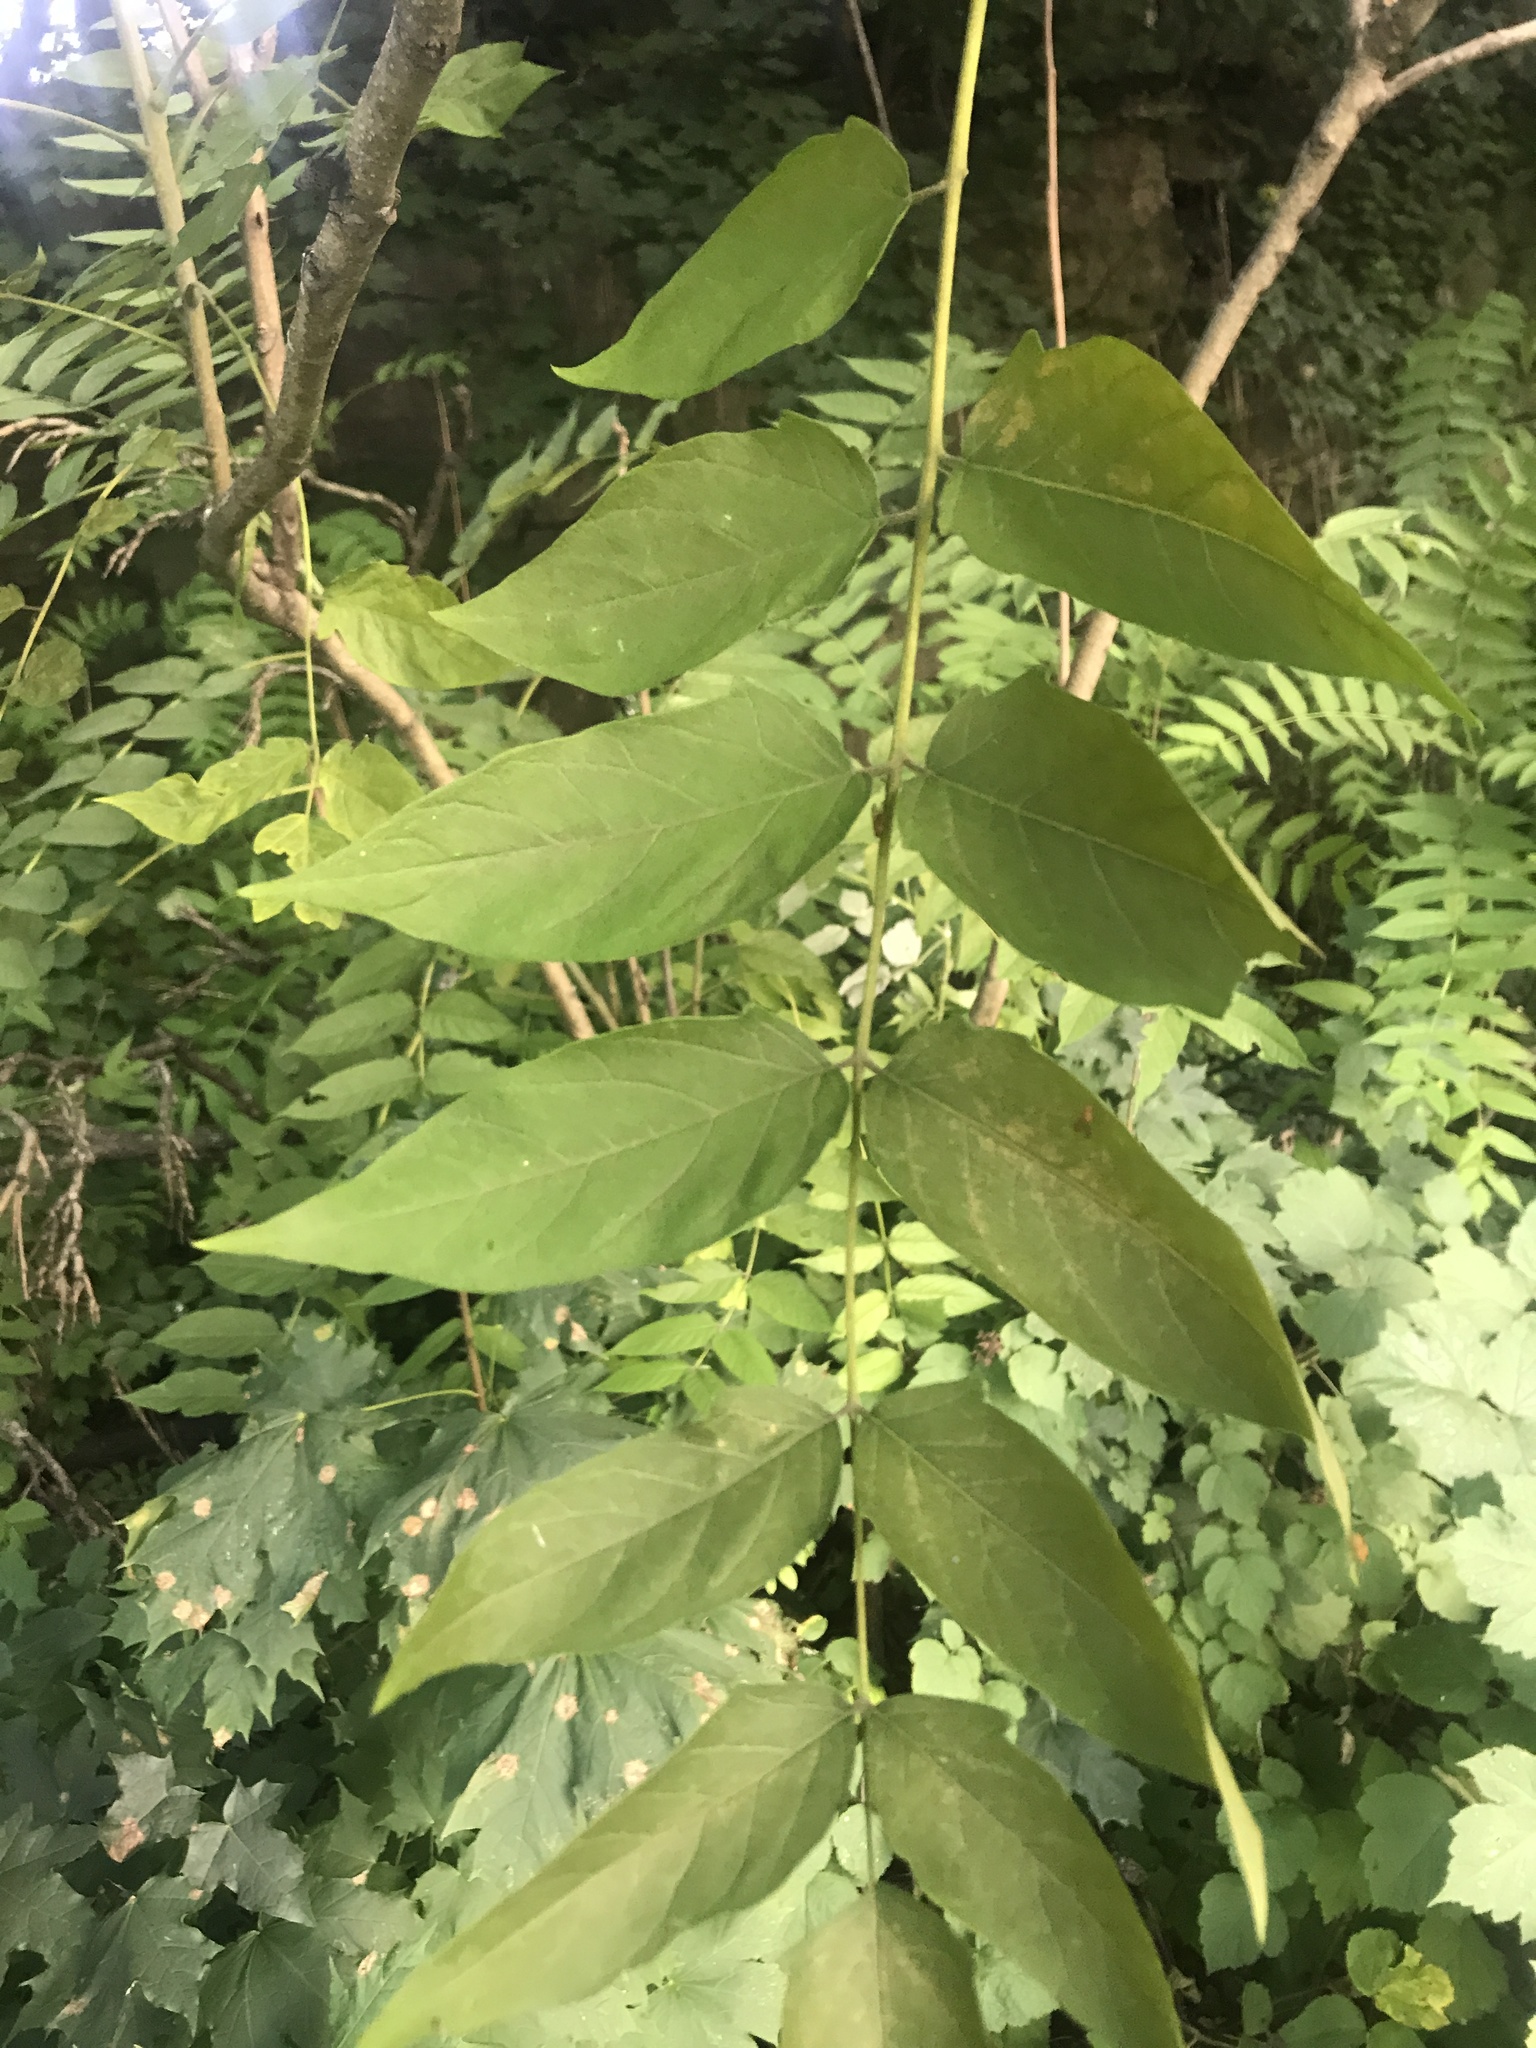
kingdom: Plantae
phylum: Tracheophyta
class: Magnoliopsida
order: Sapindales
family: Simaroubaceae
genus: Ailanthus
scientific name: Ailanthus altissima
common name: Tree-of-heaven
